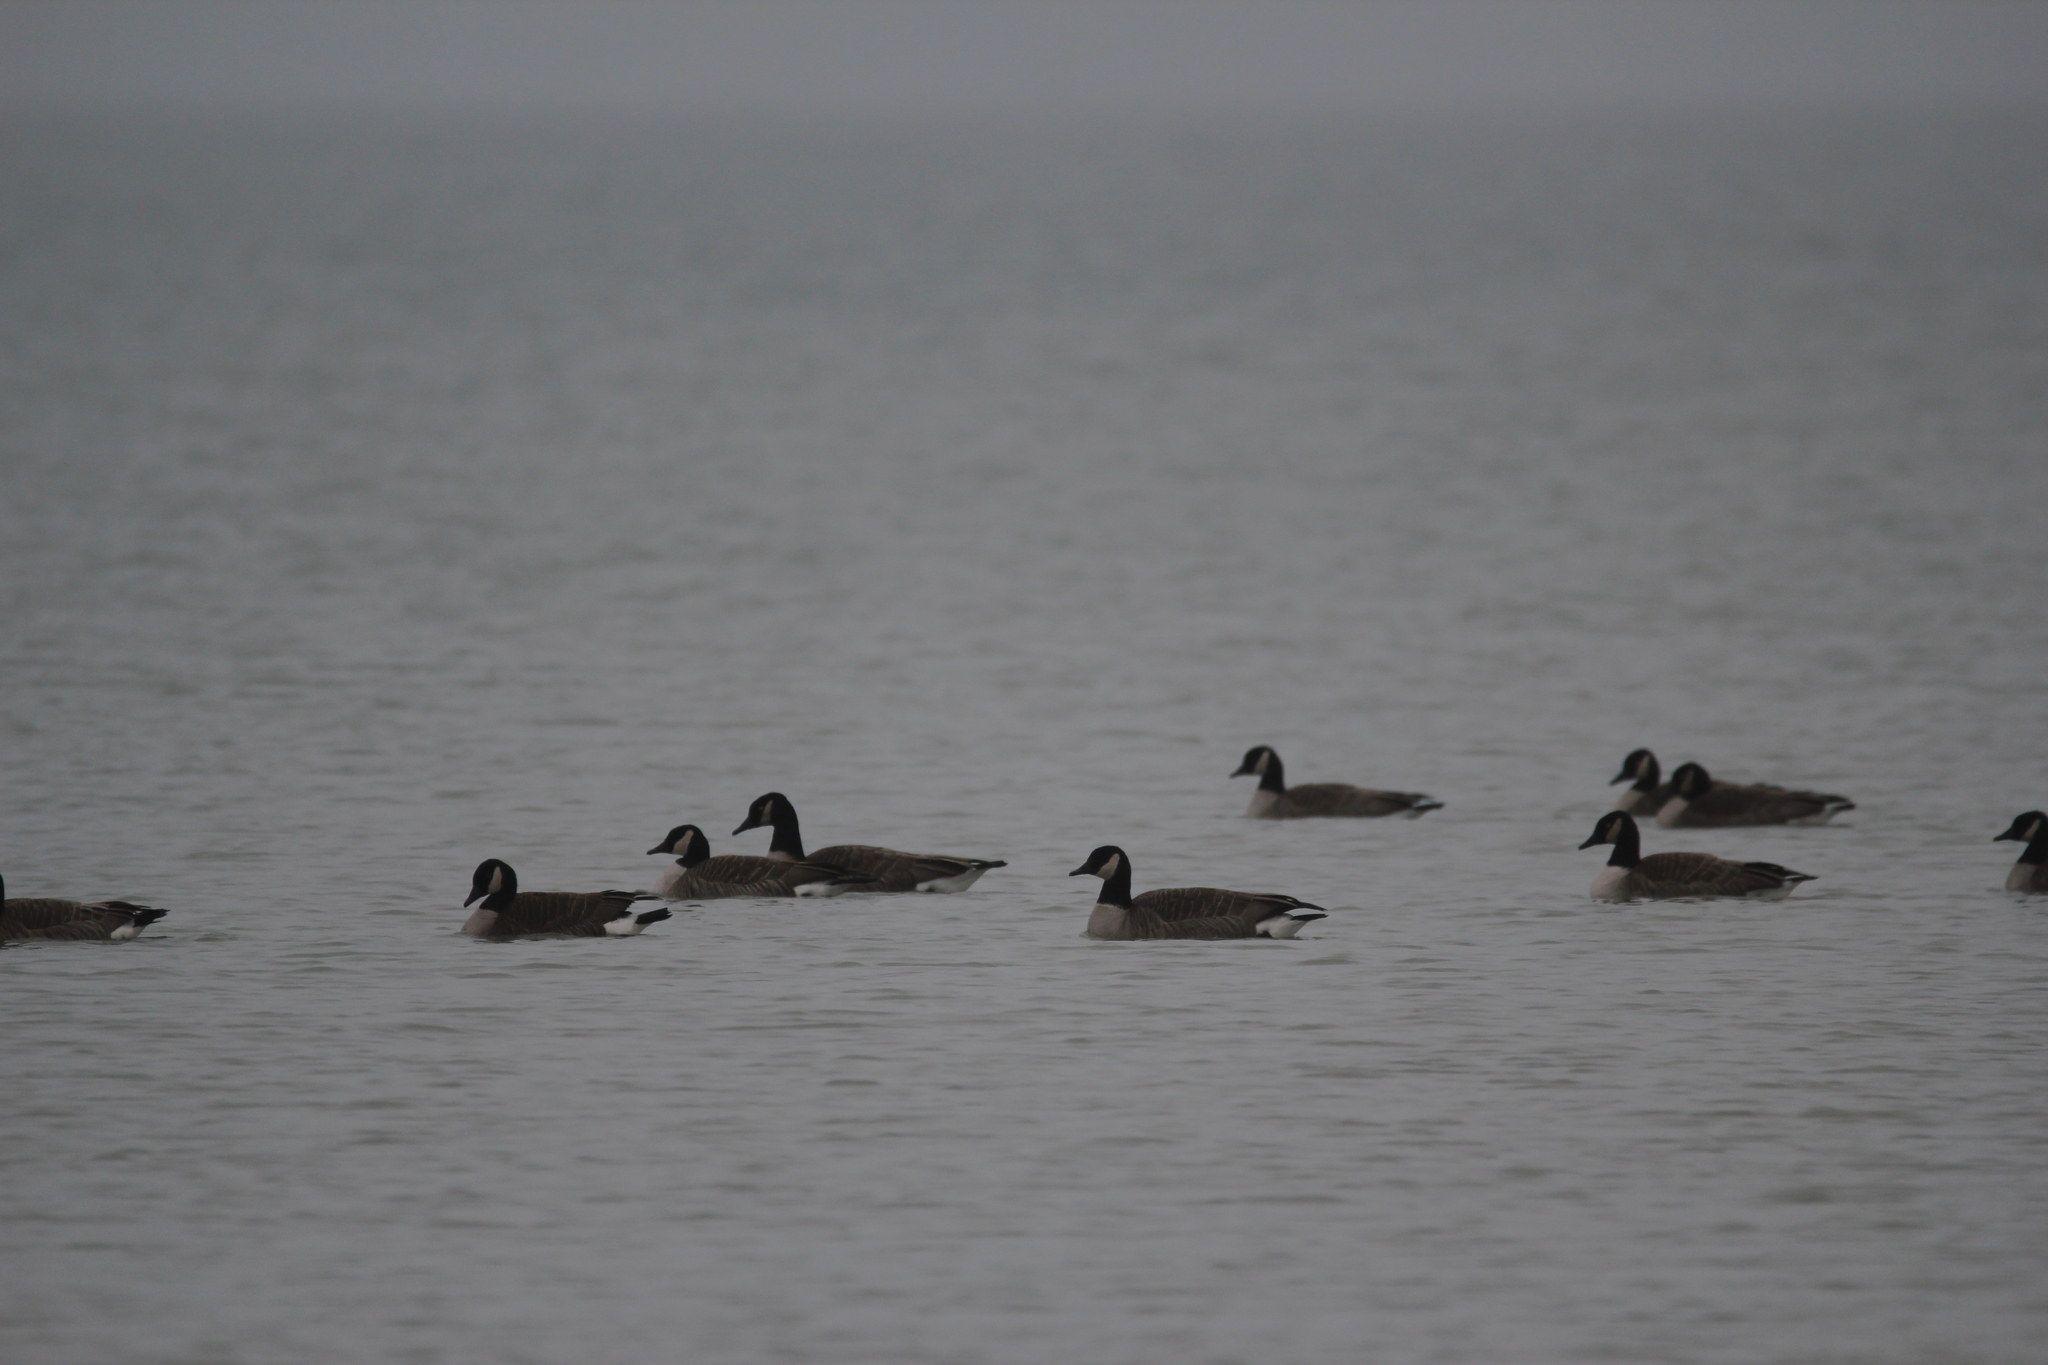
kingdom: Animalia
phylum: Chordata
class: Aves
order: Anseriformes
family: Anatidae
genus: Branta
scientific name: Branta canadensis
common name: Canada goose
